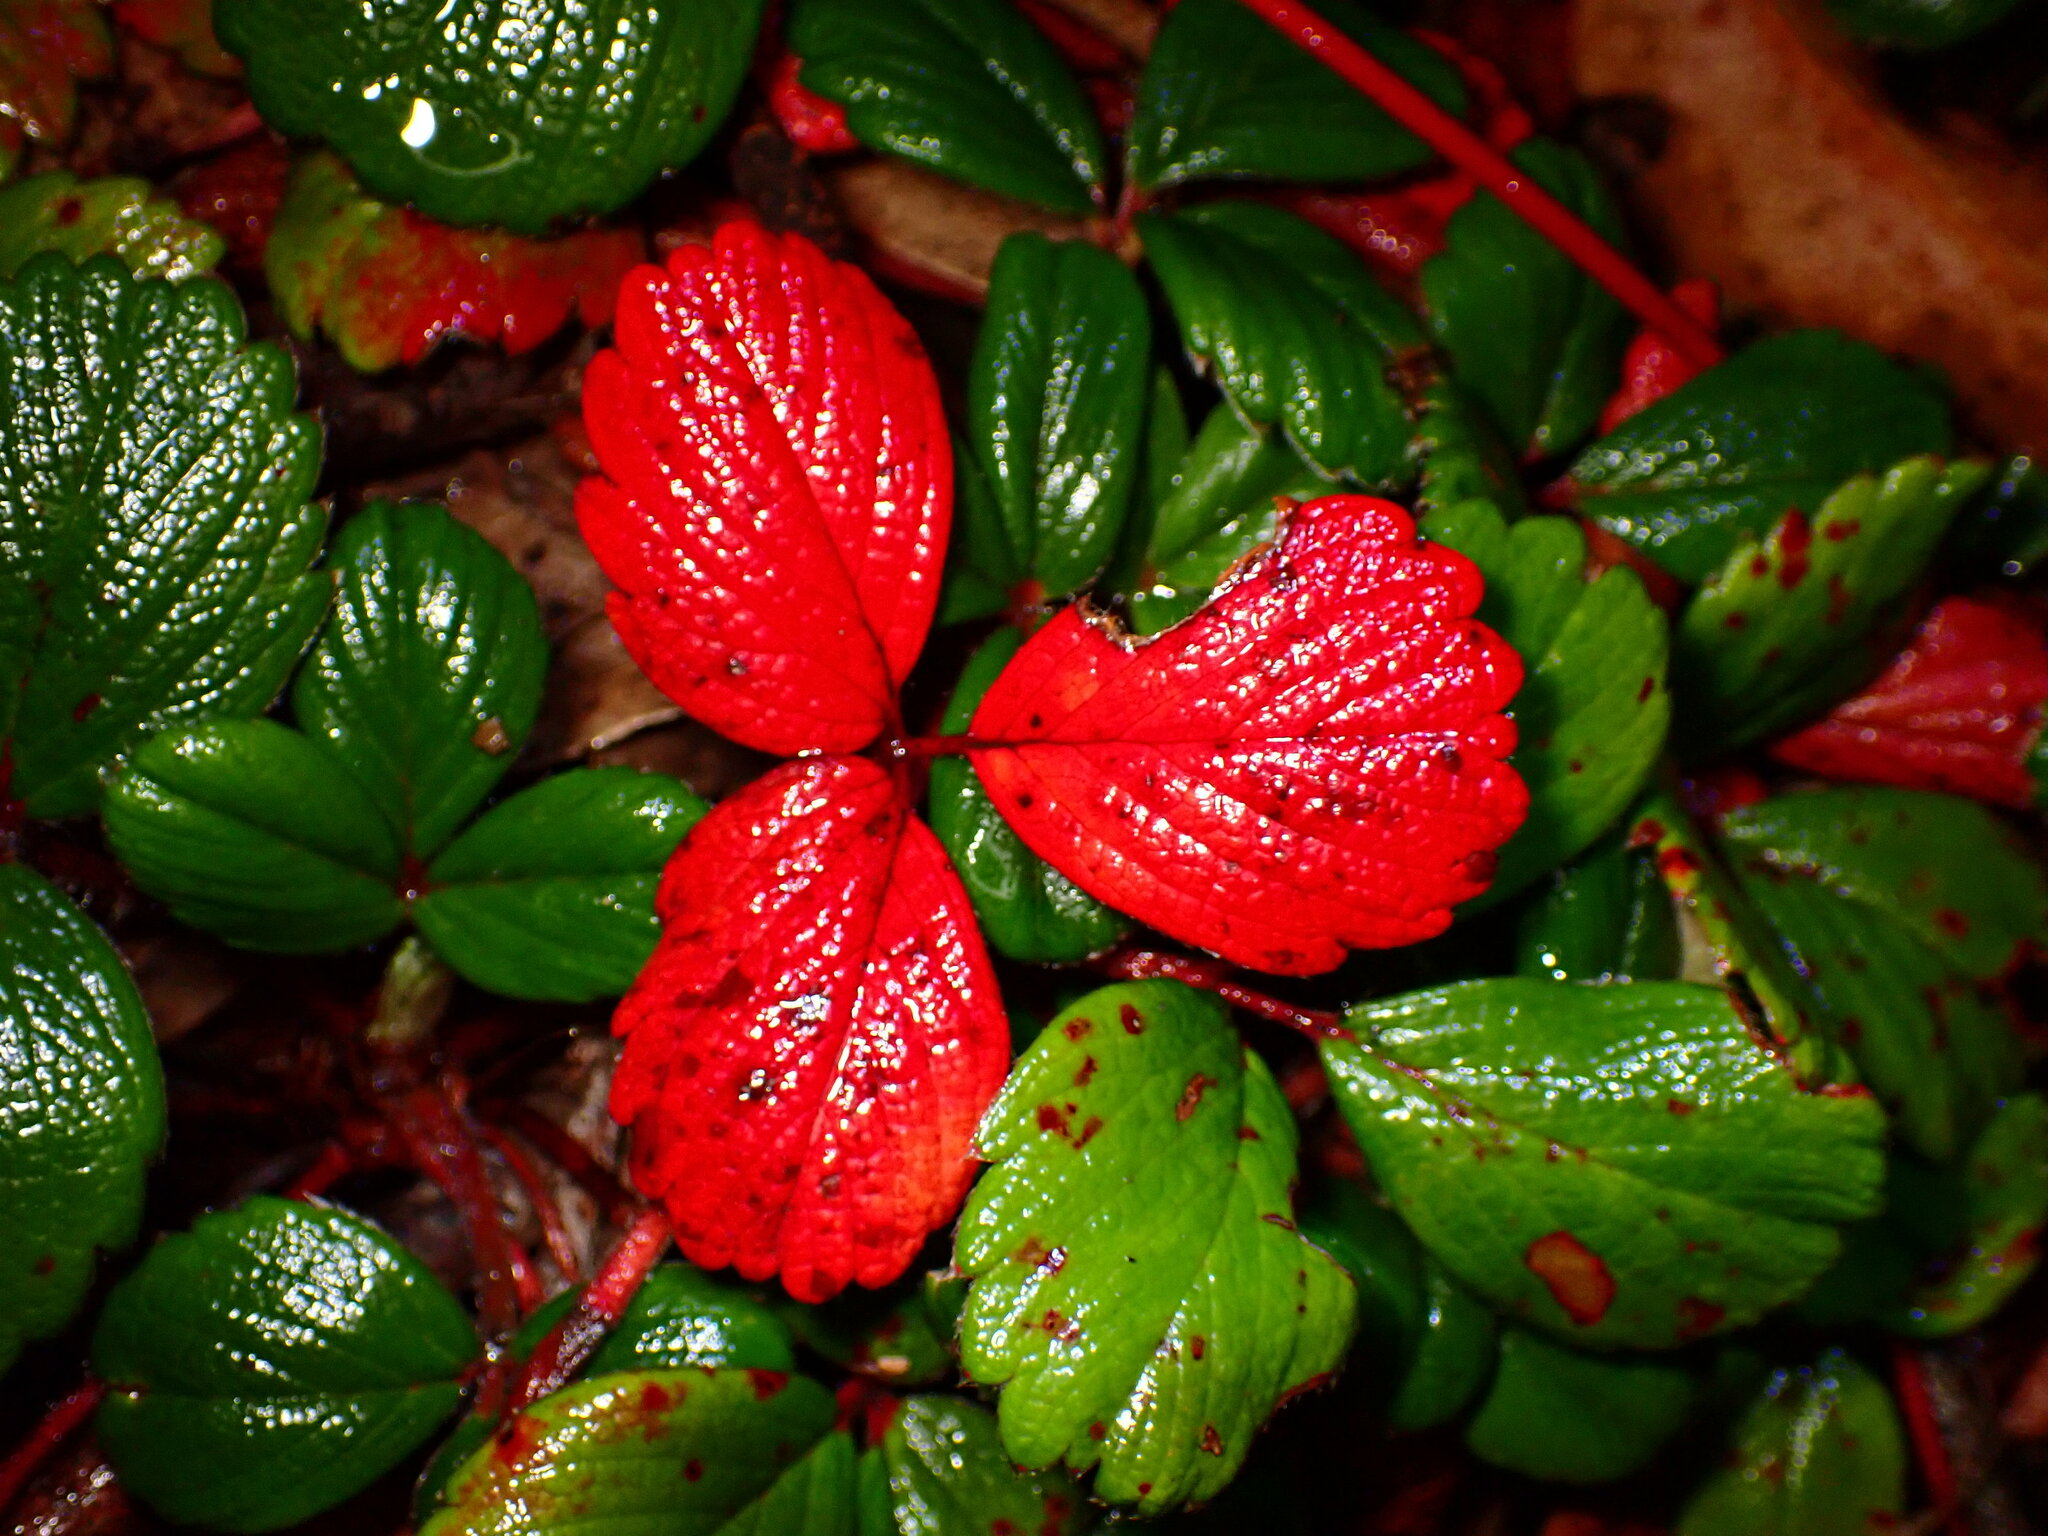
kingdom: Plantae
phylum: Tracheophyta
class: Magnoliopsida
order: Rosales
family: Rosaceae
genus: Fragaria
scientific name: Fragaria chiloensis
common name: Beach strawberry
